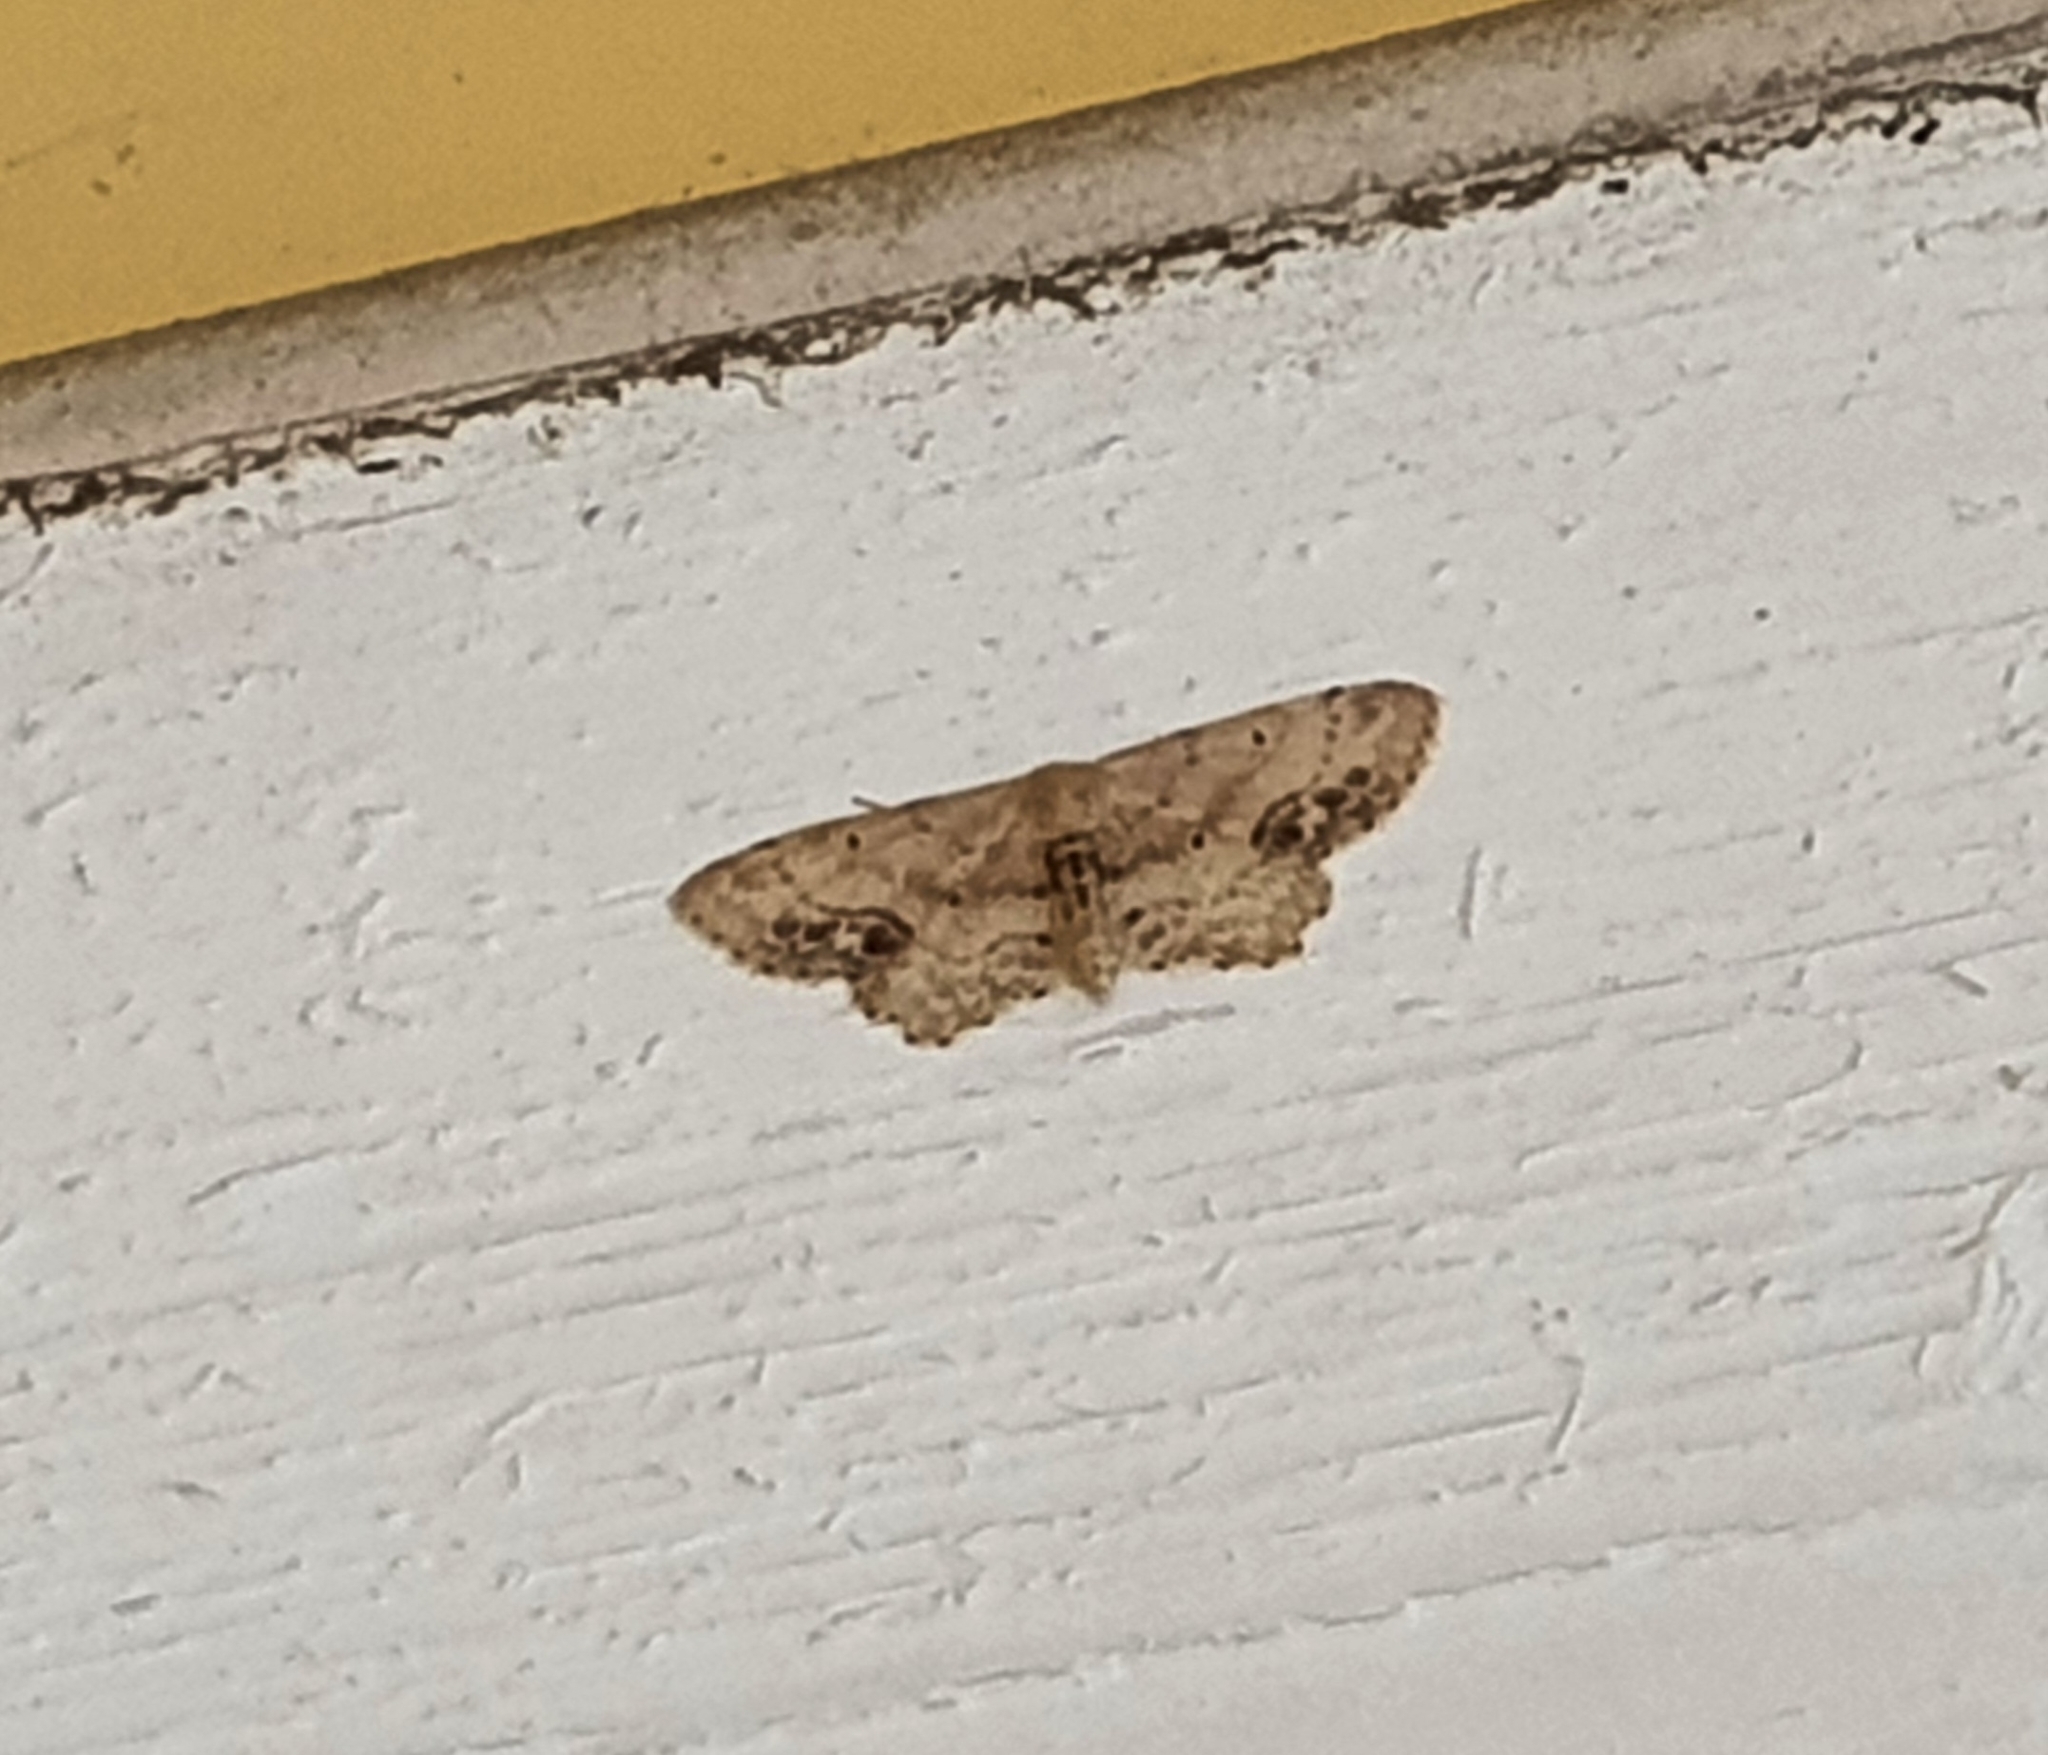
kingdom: Animalia
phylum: Arthropoda
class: Insecta
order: Lepidoptera
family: Geometridae
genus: Idaea
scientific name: Idaea dimidiata
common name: Single-dotted wave
